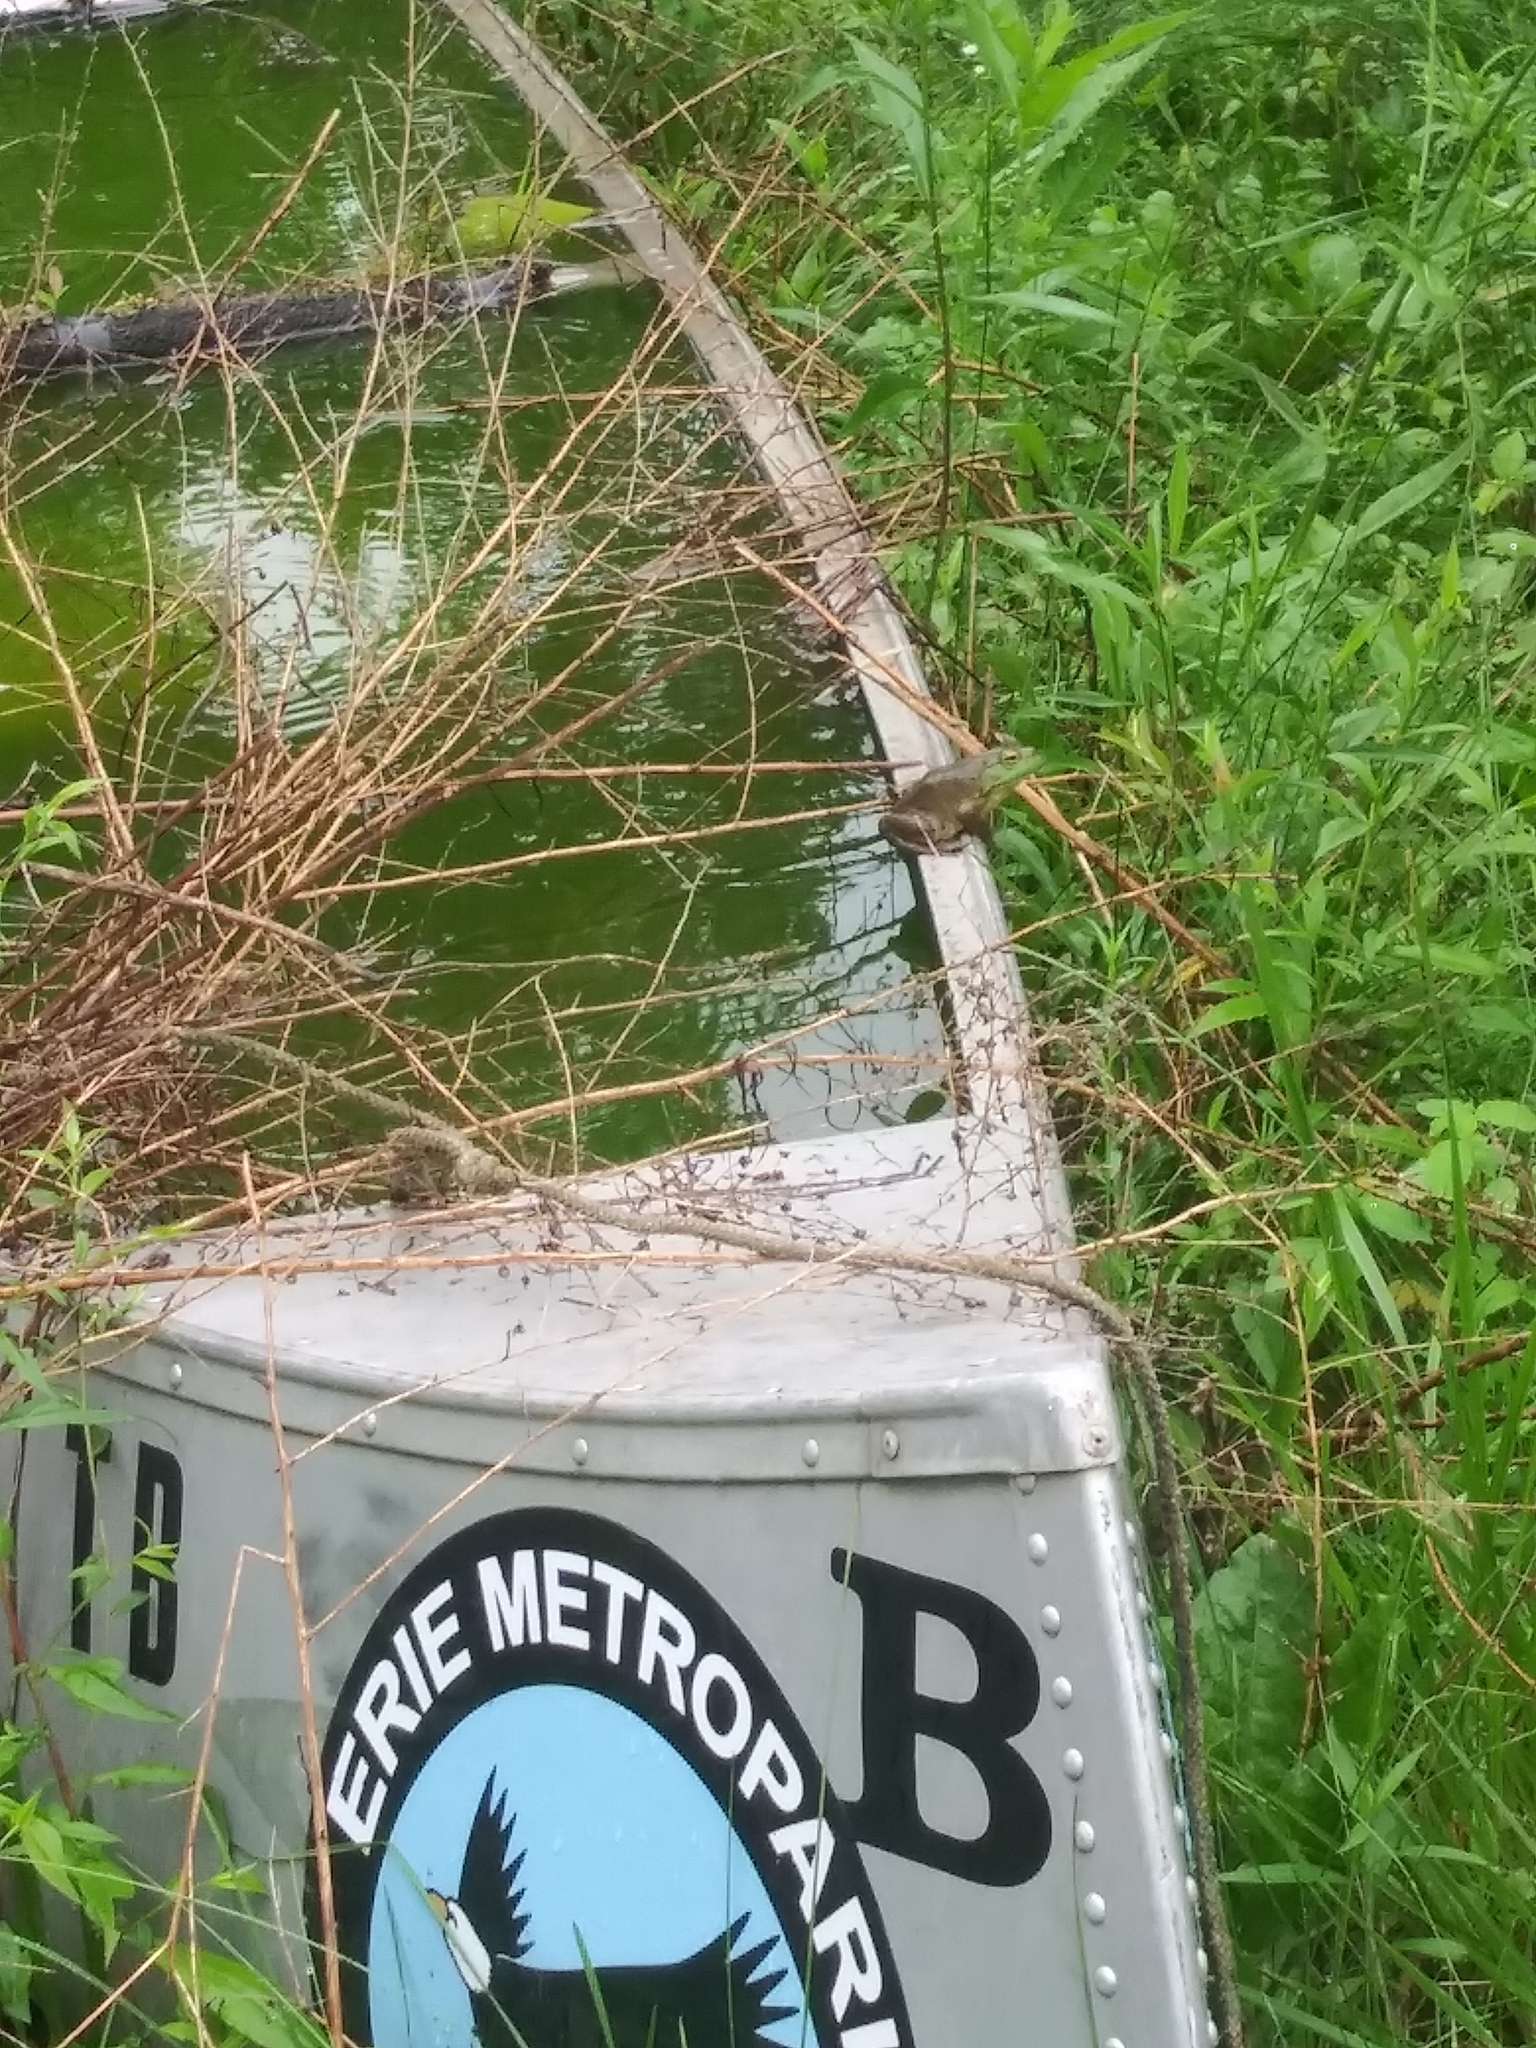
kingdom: Animalia
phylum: Chordata
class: Amphibia
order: Anura
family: Ranidae
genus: Lithobates
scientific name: Lithobates catesbeianus
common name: American bullfrog
